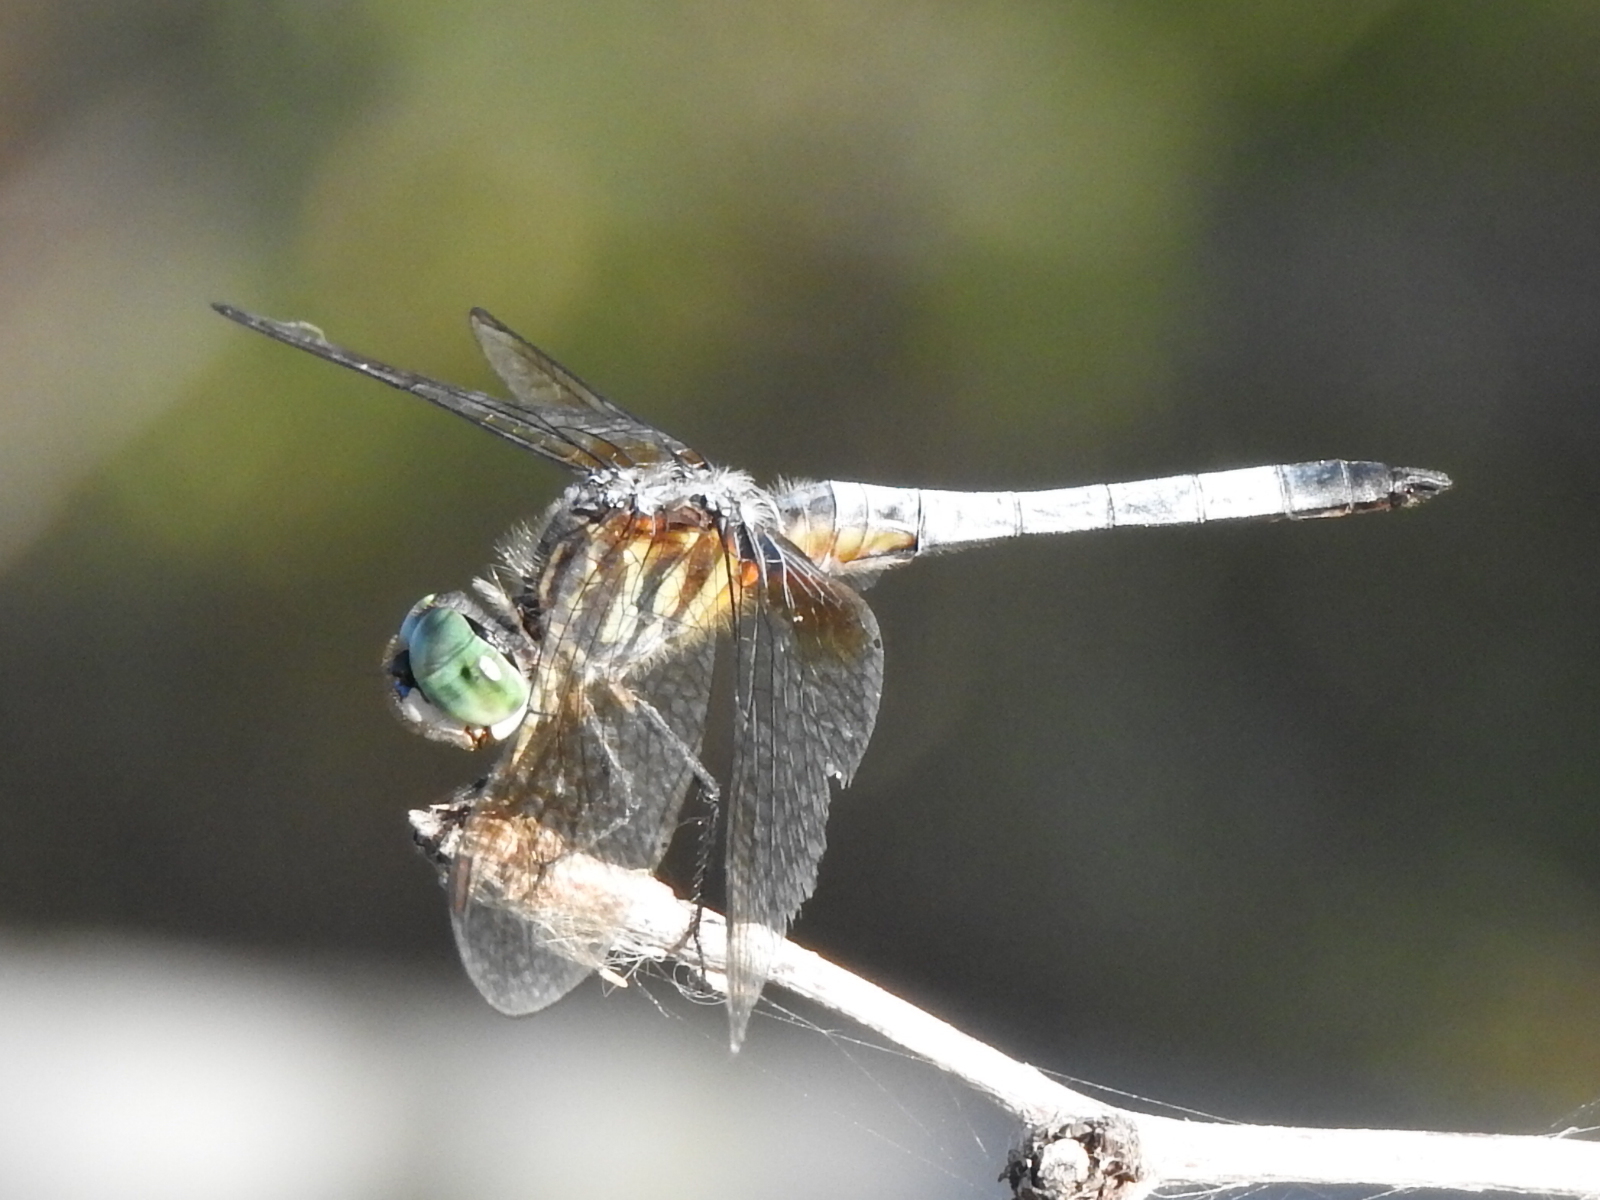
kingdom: Animalia
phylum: Arthropoda
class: Insecta
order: Odonata
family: Libellulidae
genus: Pachydiplax
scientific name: Pachydiplax longipennis
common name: Blue dasher
